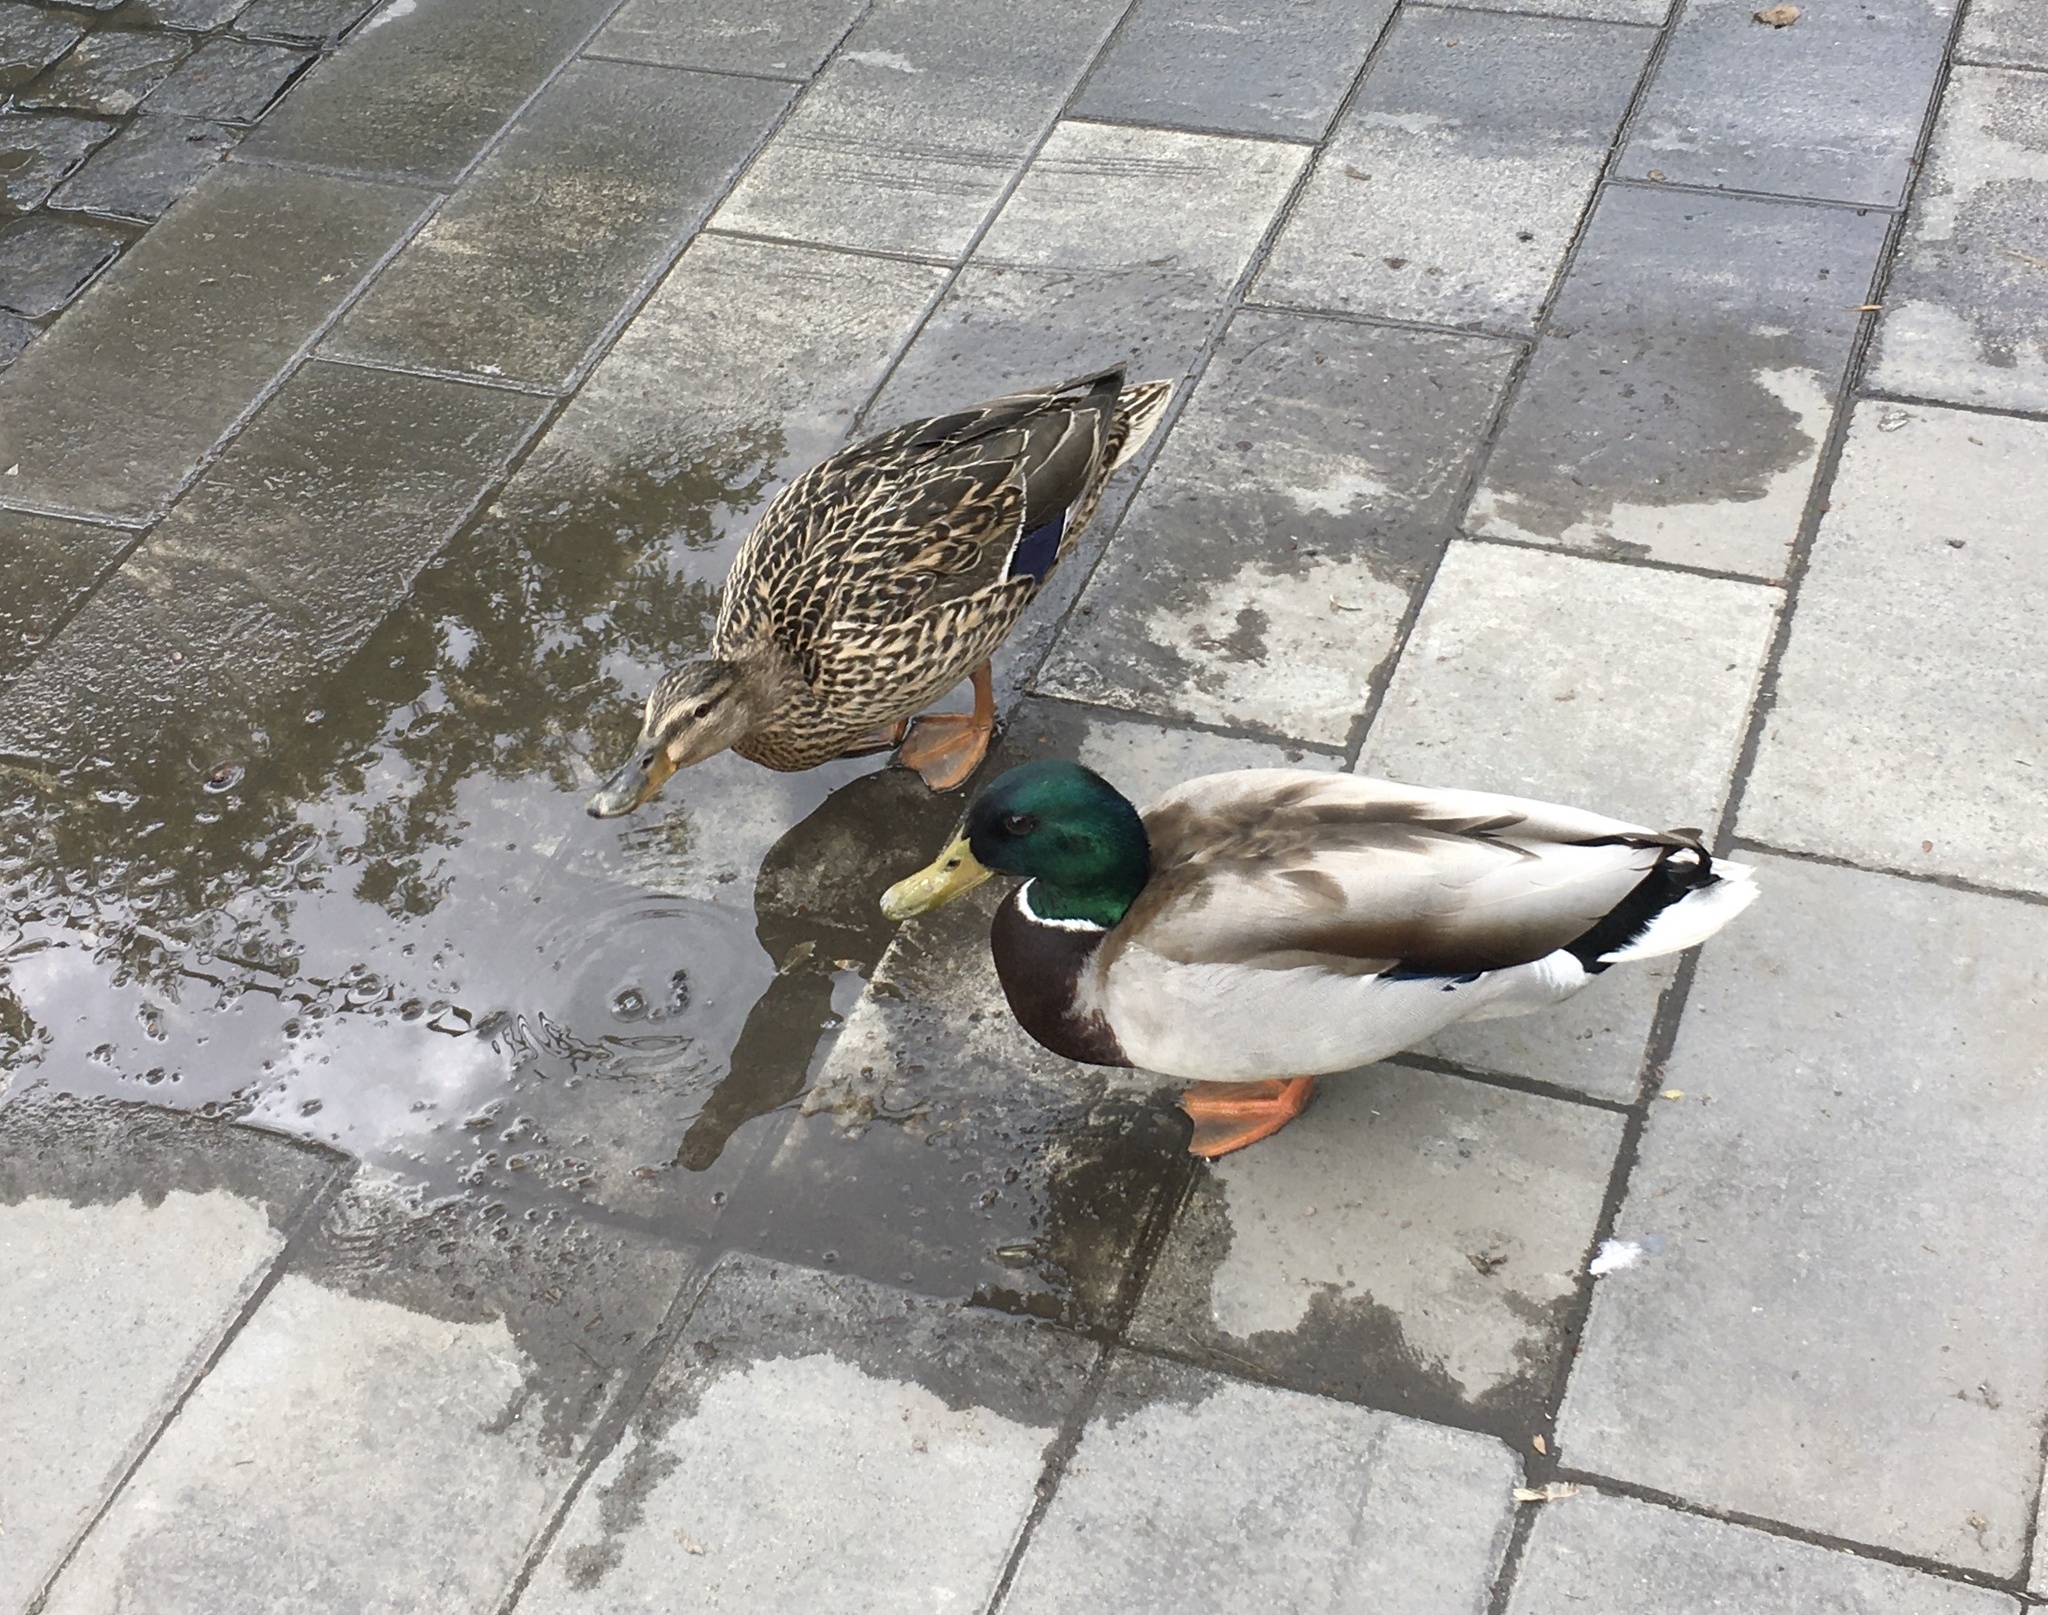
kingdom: Animalia
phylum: Chordata
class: Aves
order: Anseriformes
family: Anatidae
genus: Anas
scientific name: Anas platyrhynchos
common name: Mallard
